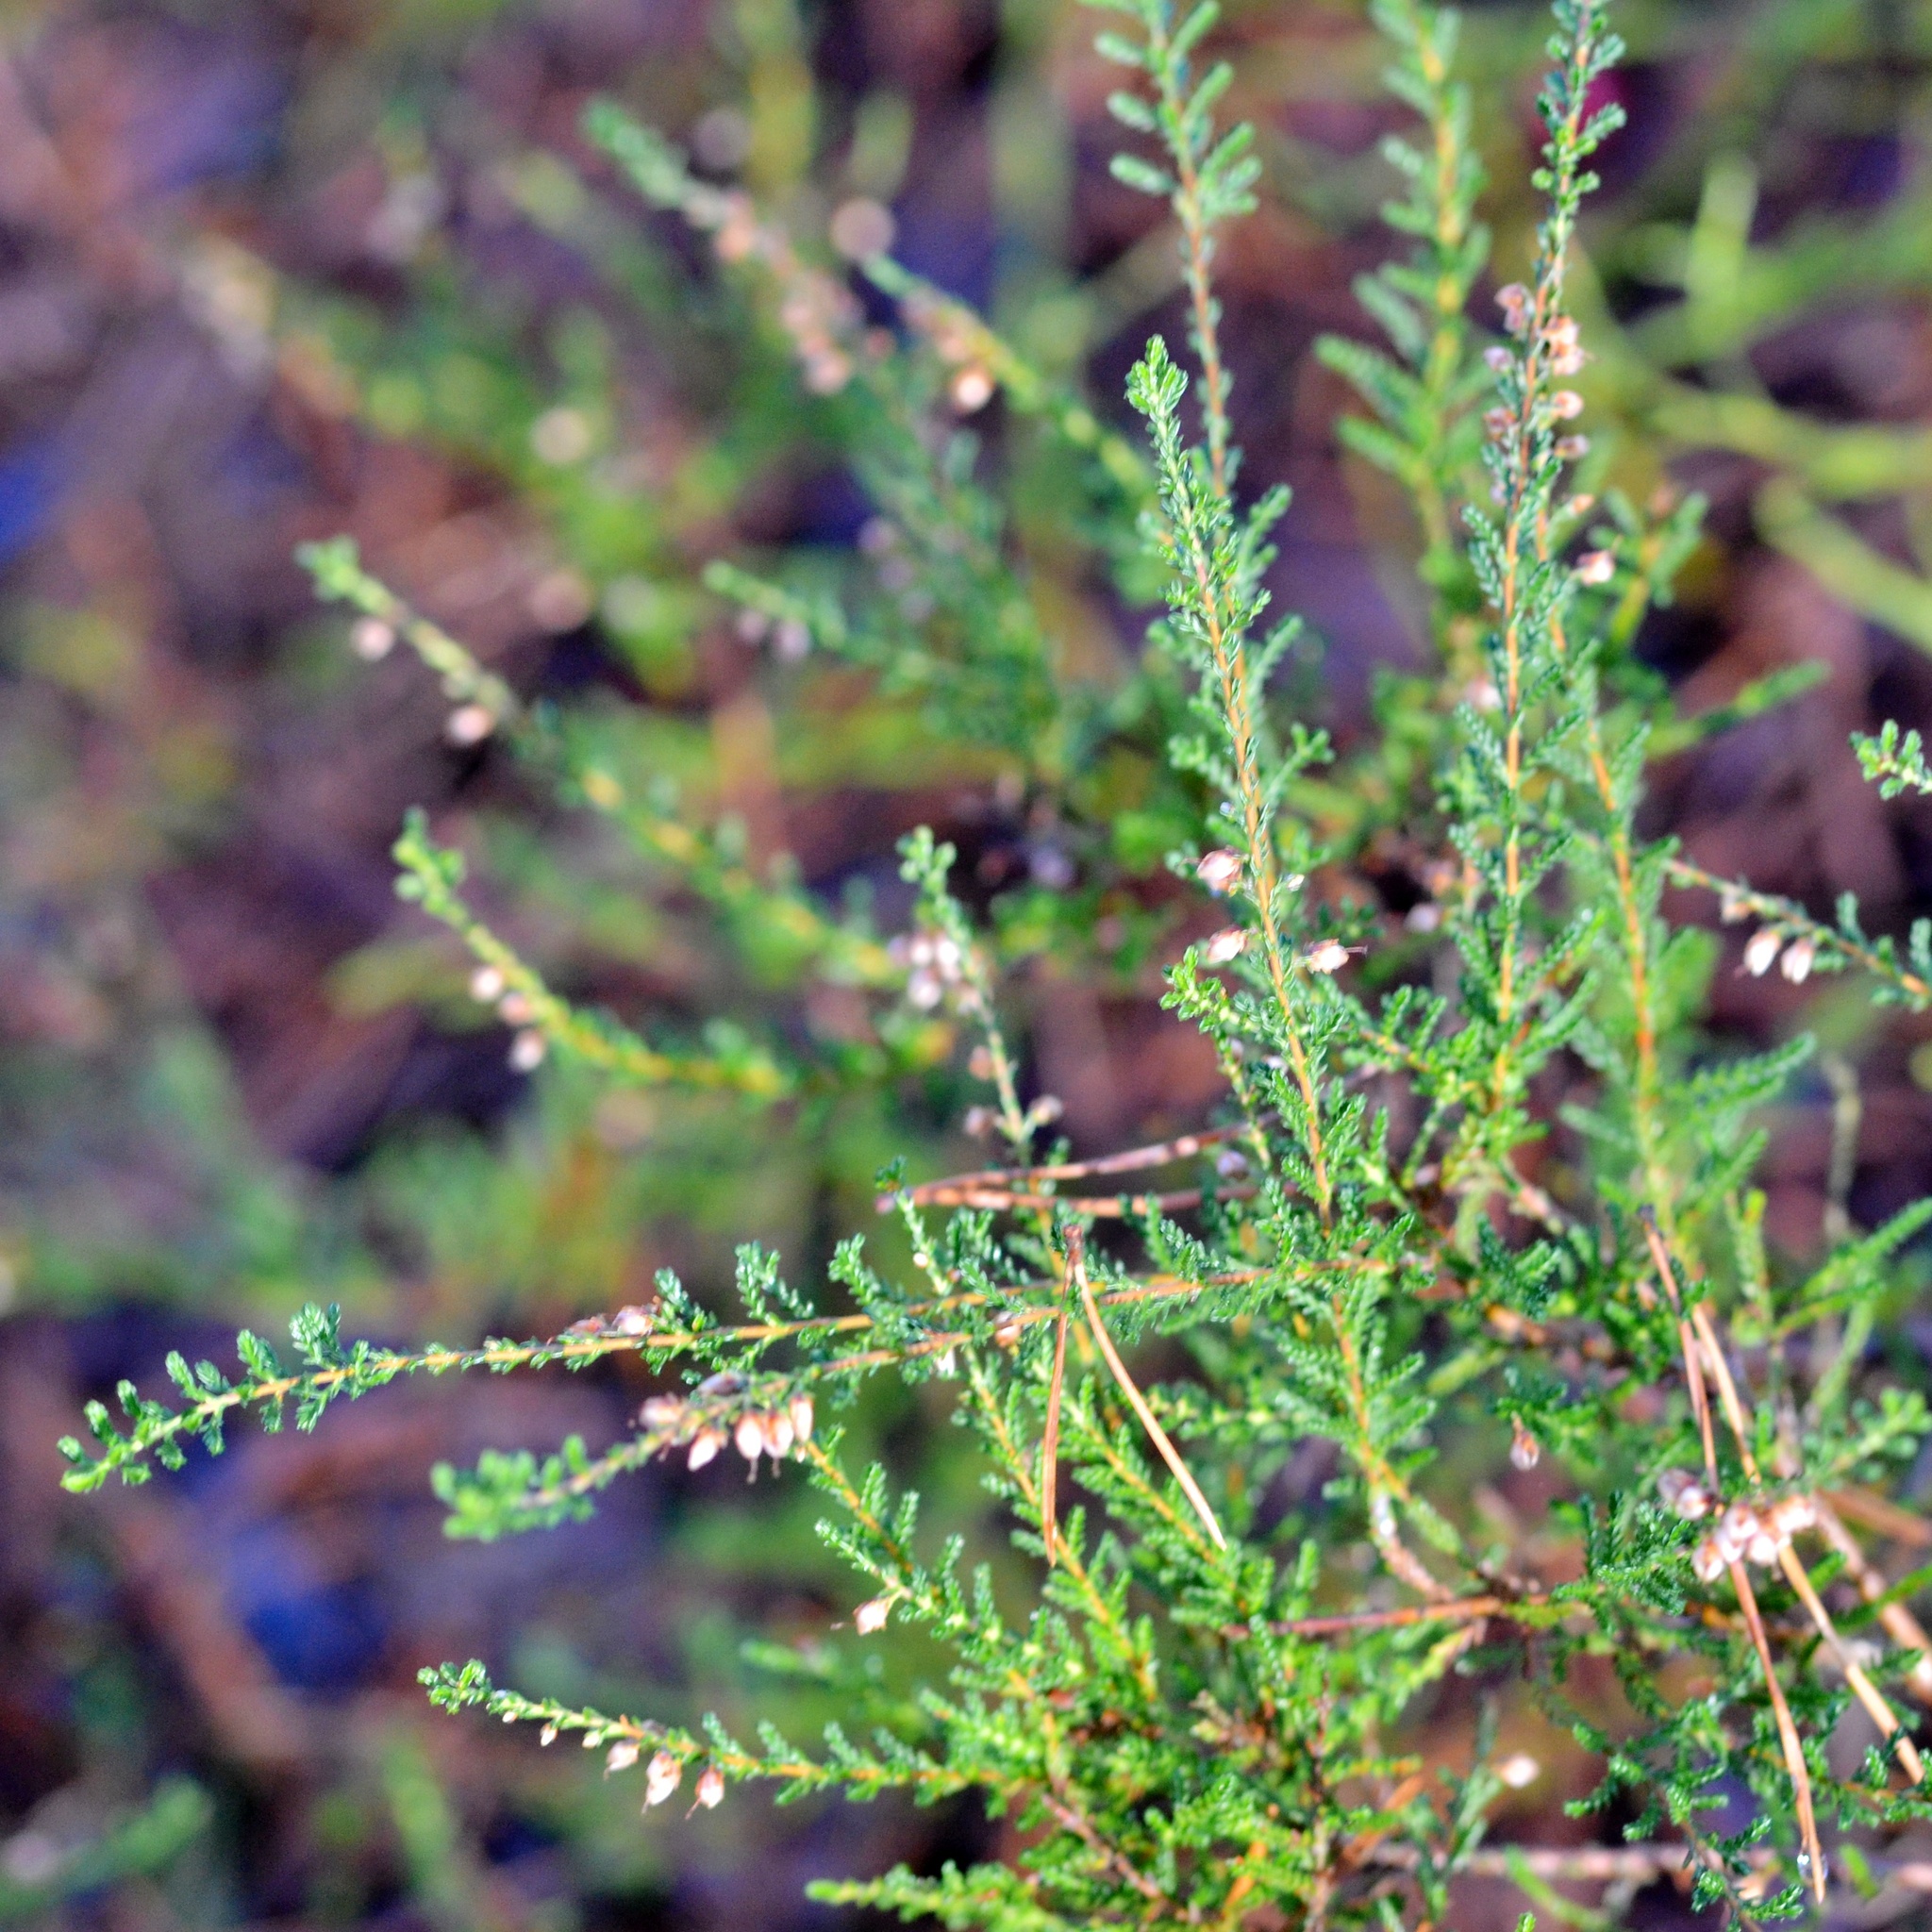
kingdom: Plantae
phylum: Tracheophyta
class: Magnoliopsida
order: Ericales
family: Ericaceae
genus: Calluna
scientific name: Calluna vulgaris
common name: Heather
